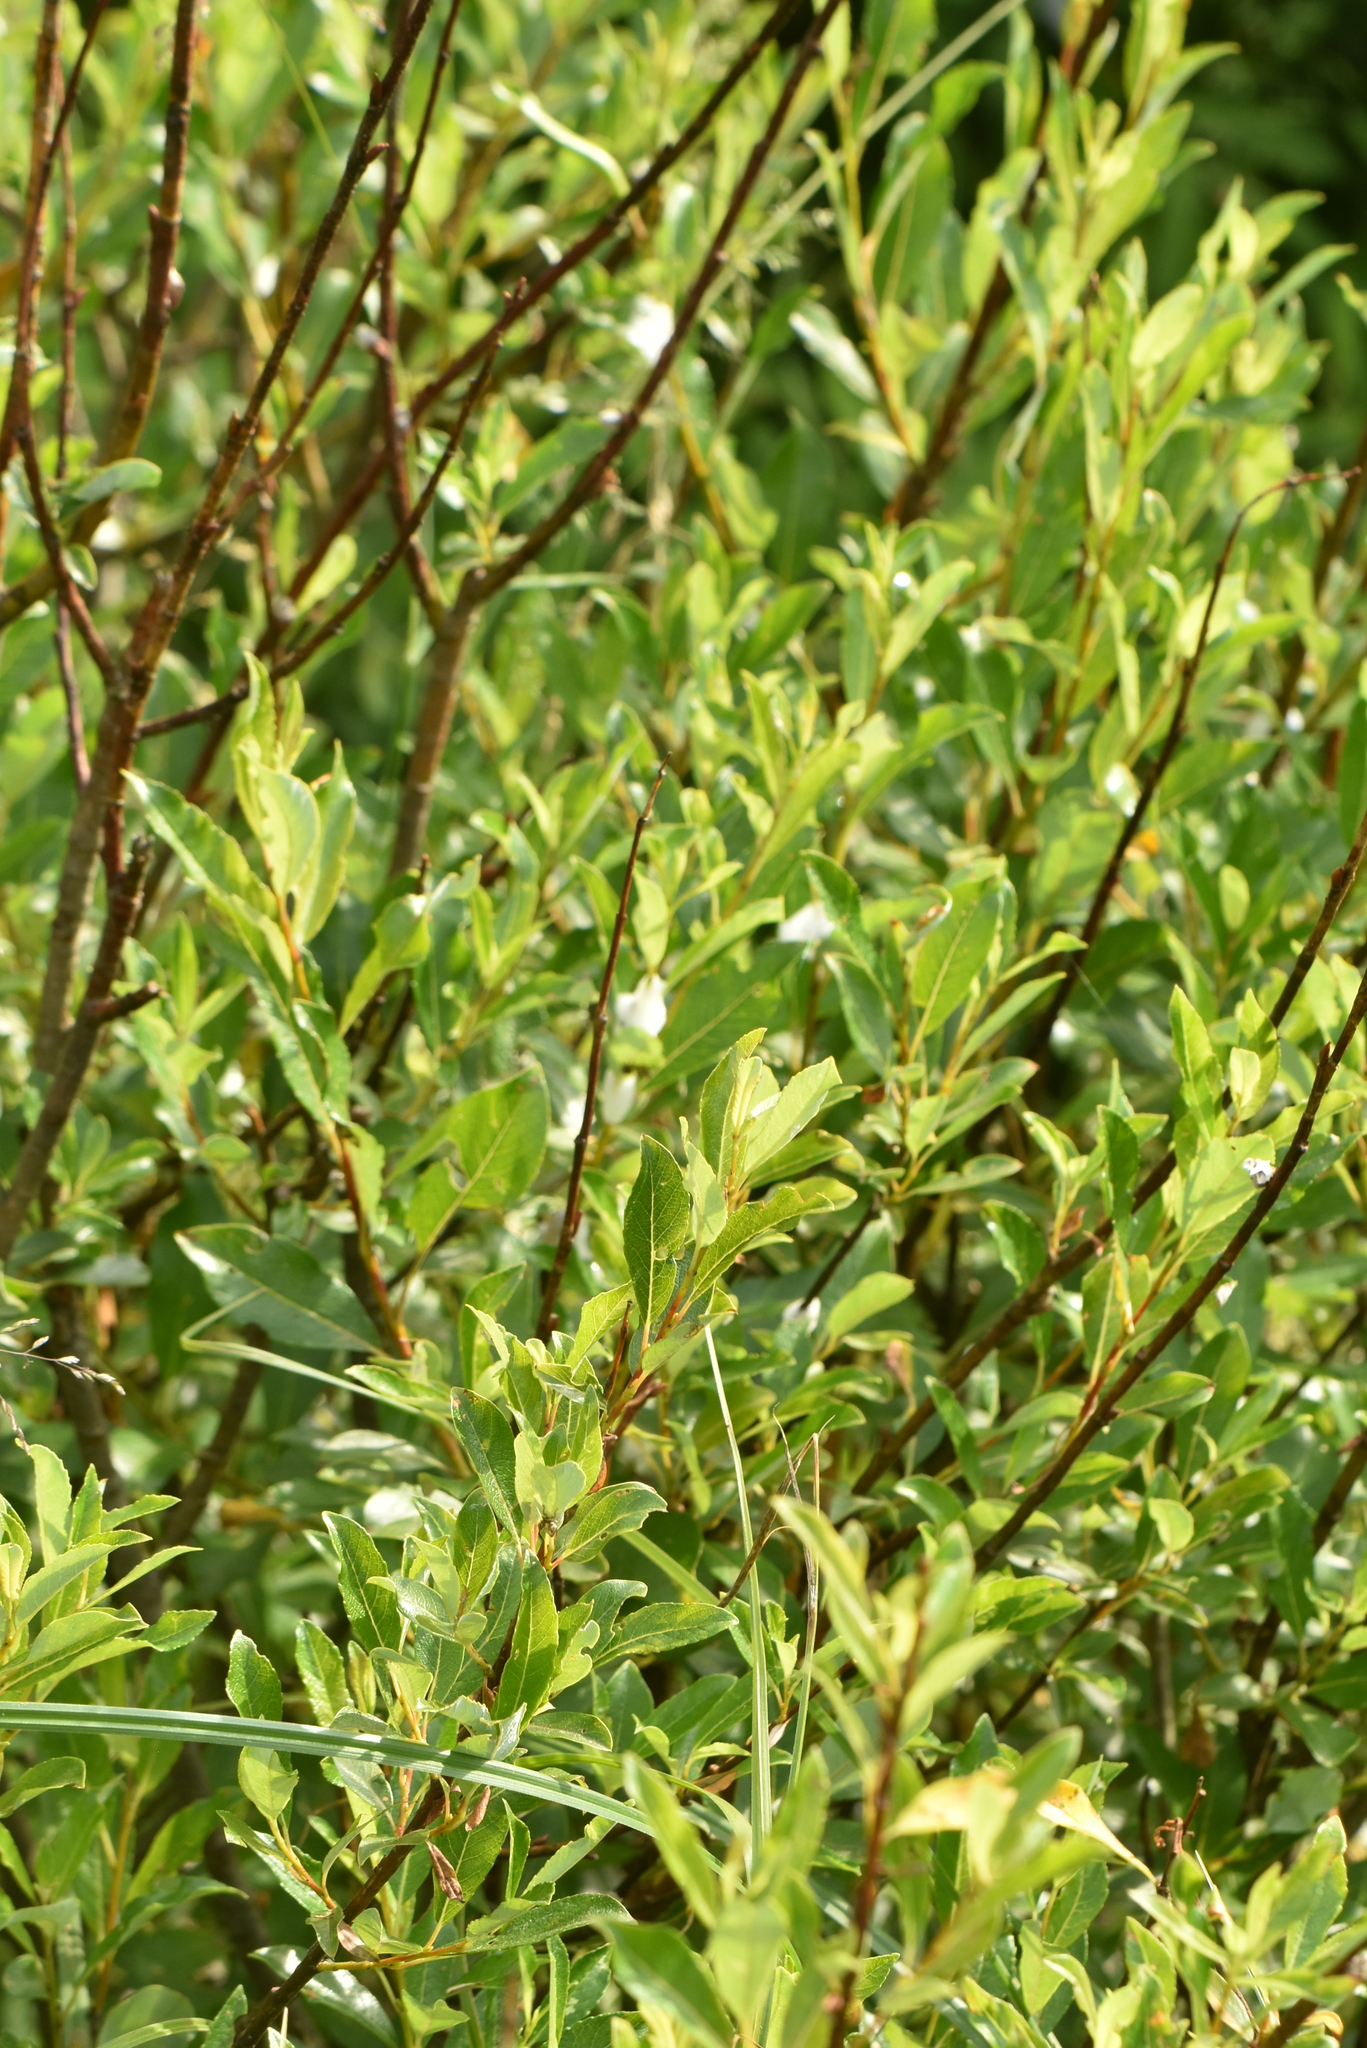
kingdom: Plantae
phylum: Tracheophyta
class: Magnoliopsida
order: Malpighiales
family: Salicaceae
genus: Salix
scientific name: Salix phylicifolia
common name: Tea-leaved willow
